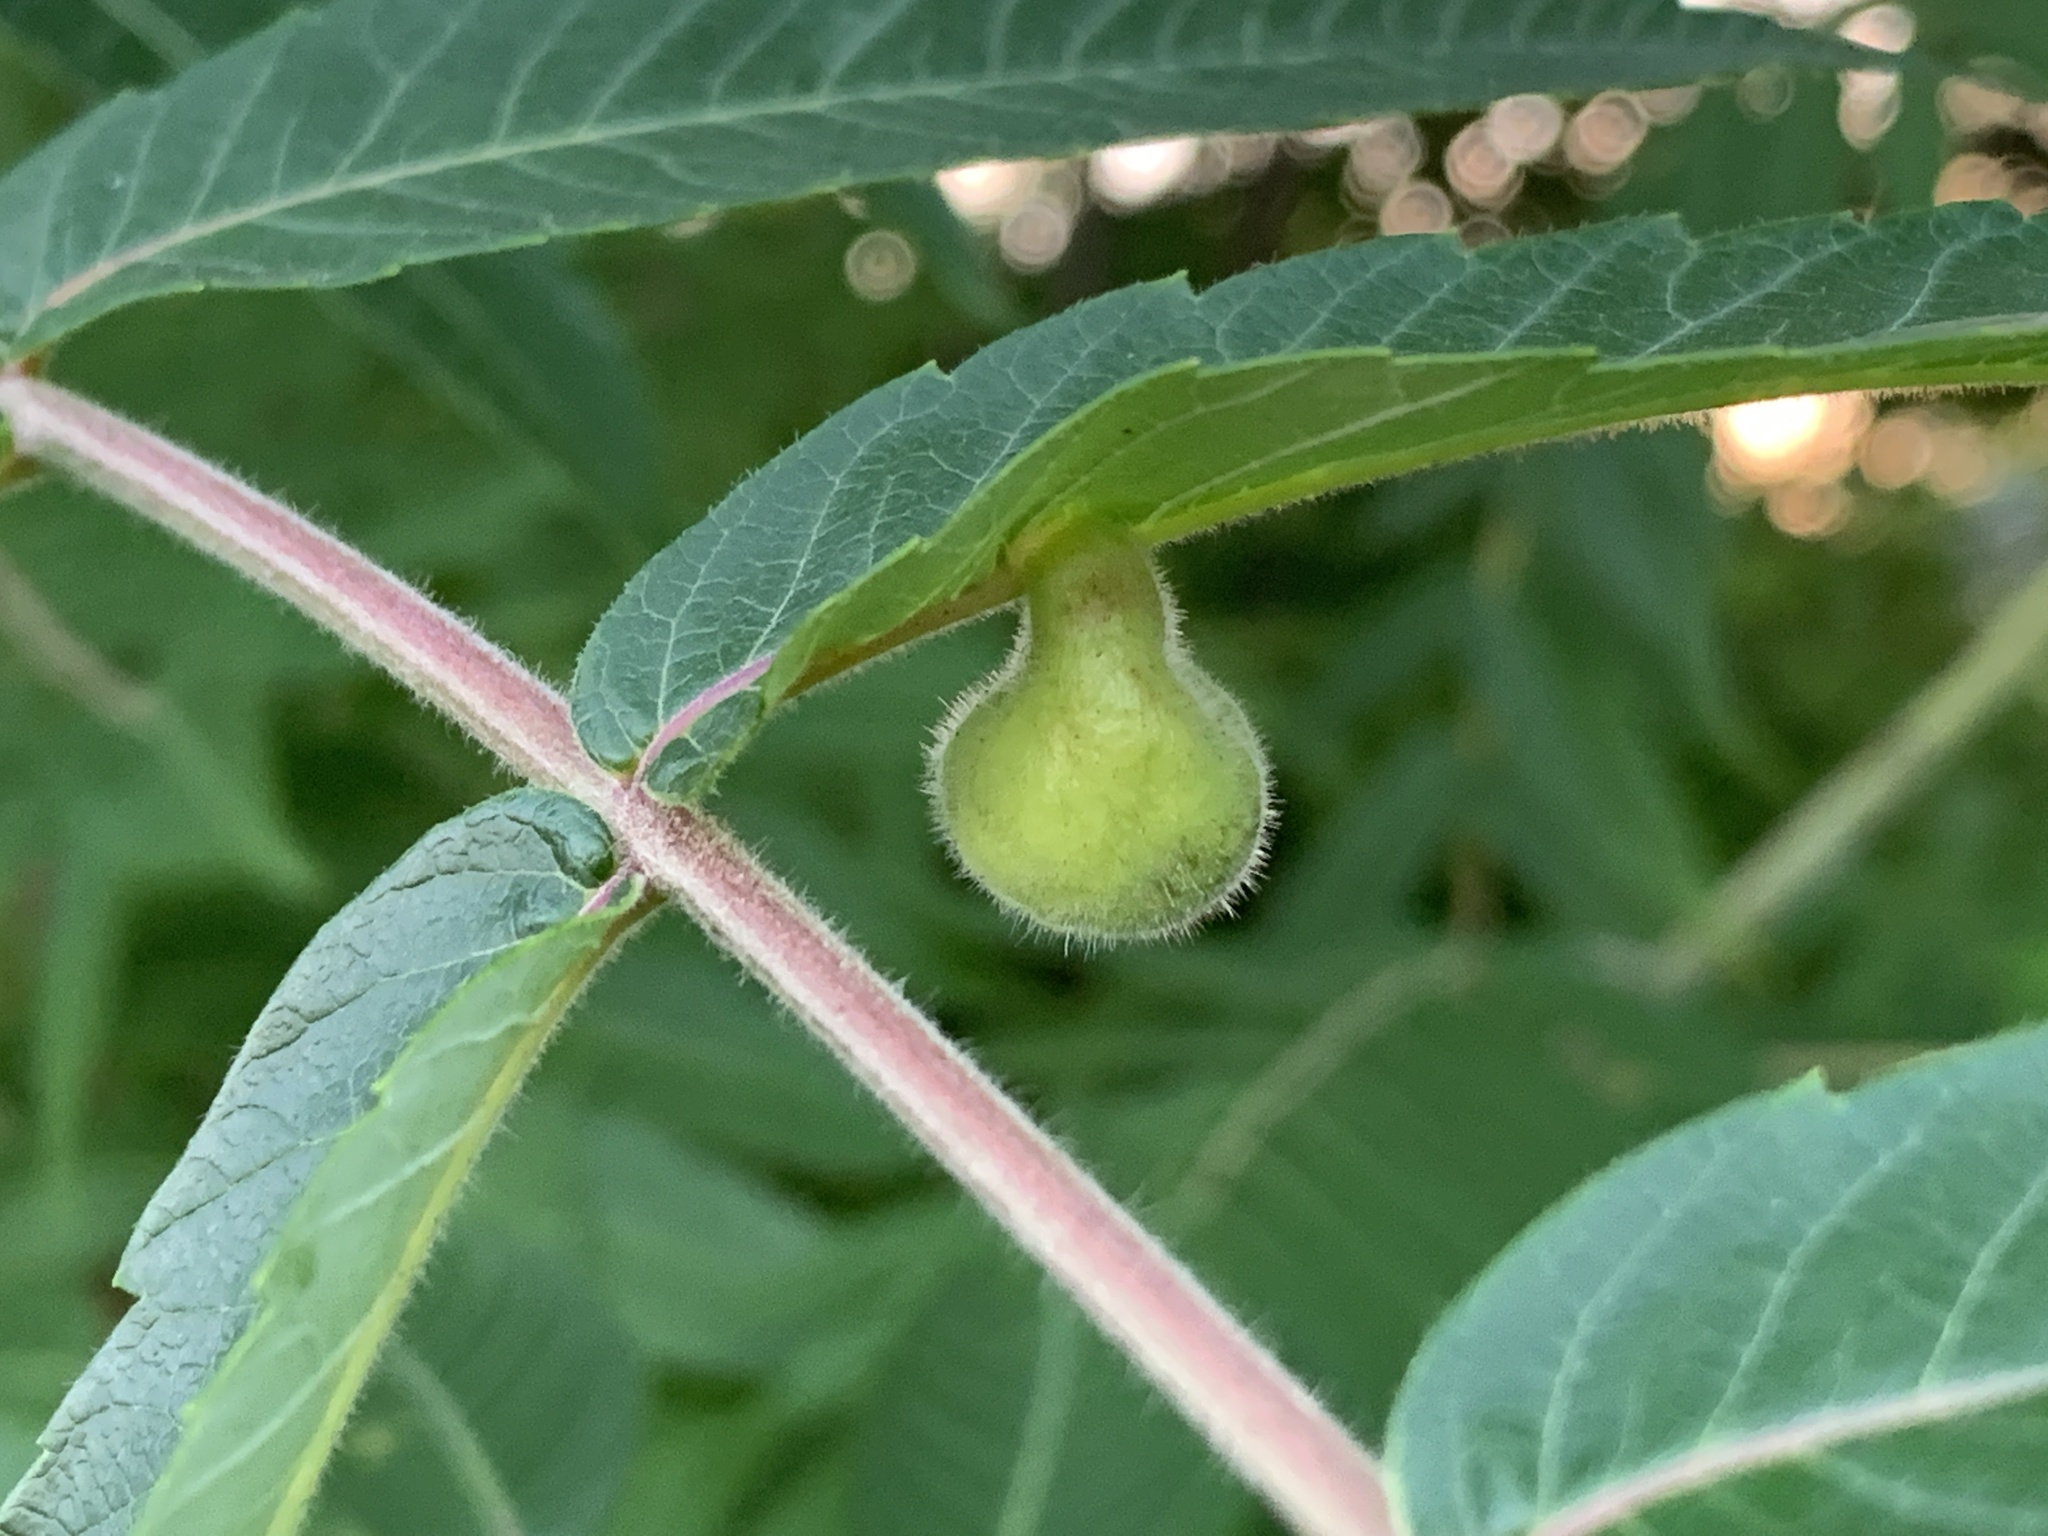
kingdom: Animalia
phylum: Arthropoda
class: Insecta
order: Hemiptera
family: Aphididae
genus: Melaphis
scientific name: Melaphis rhois
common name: Sumac gall aphid
